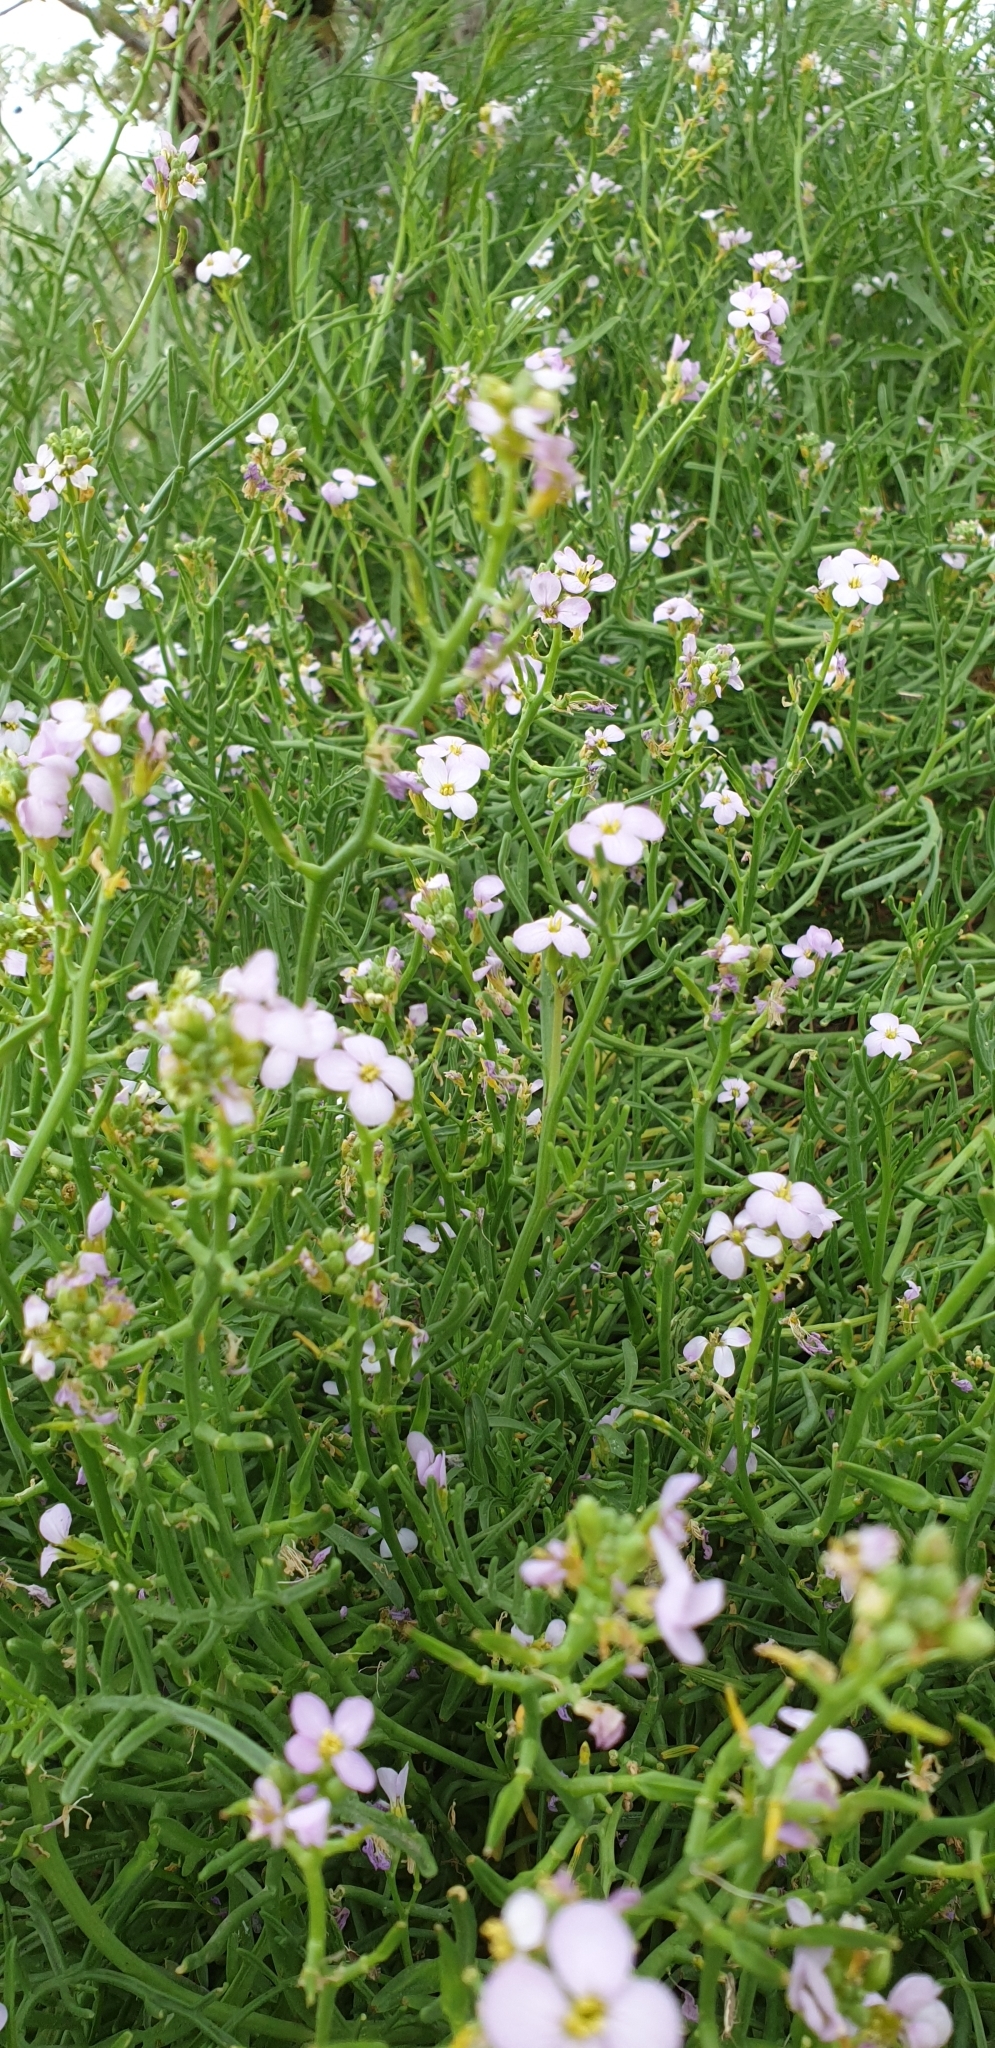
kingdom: Plantae
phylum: Tracheophyta
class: Magnoliopsida
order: Brassicales
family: Brassicaceae
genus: Cakile
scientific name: Cakile maritima
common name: Sea rocket
